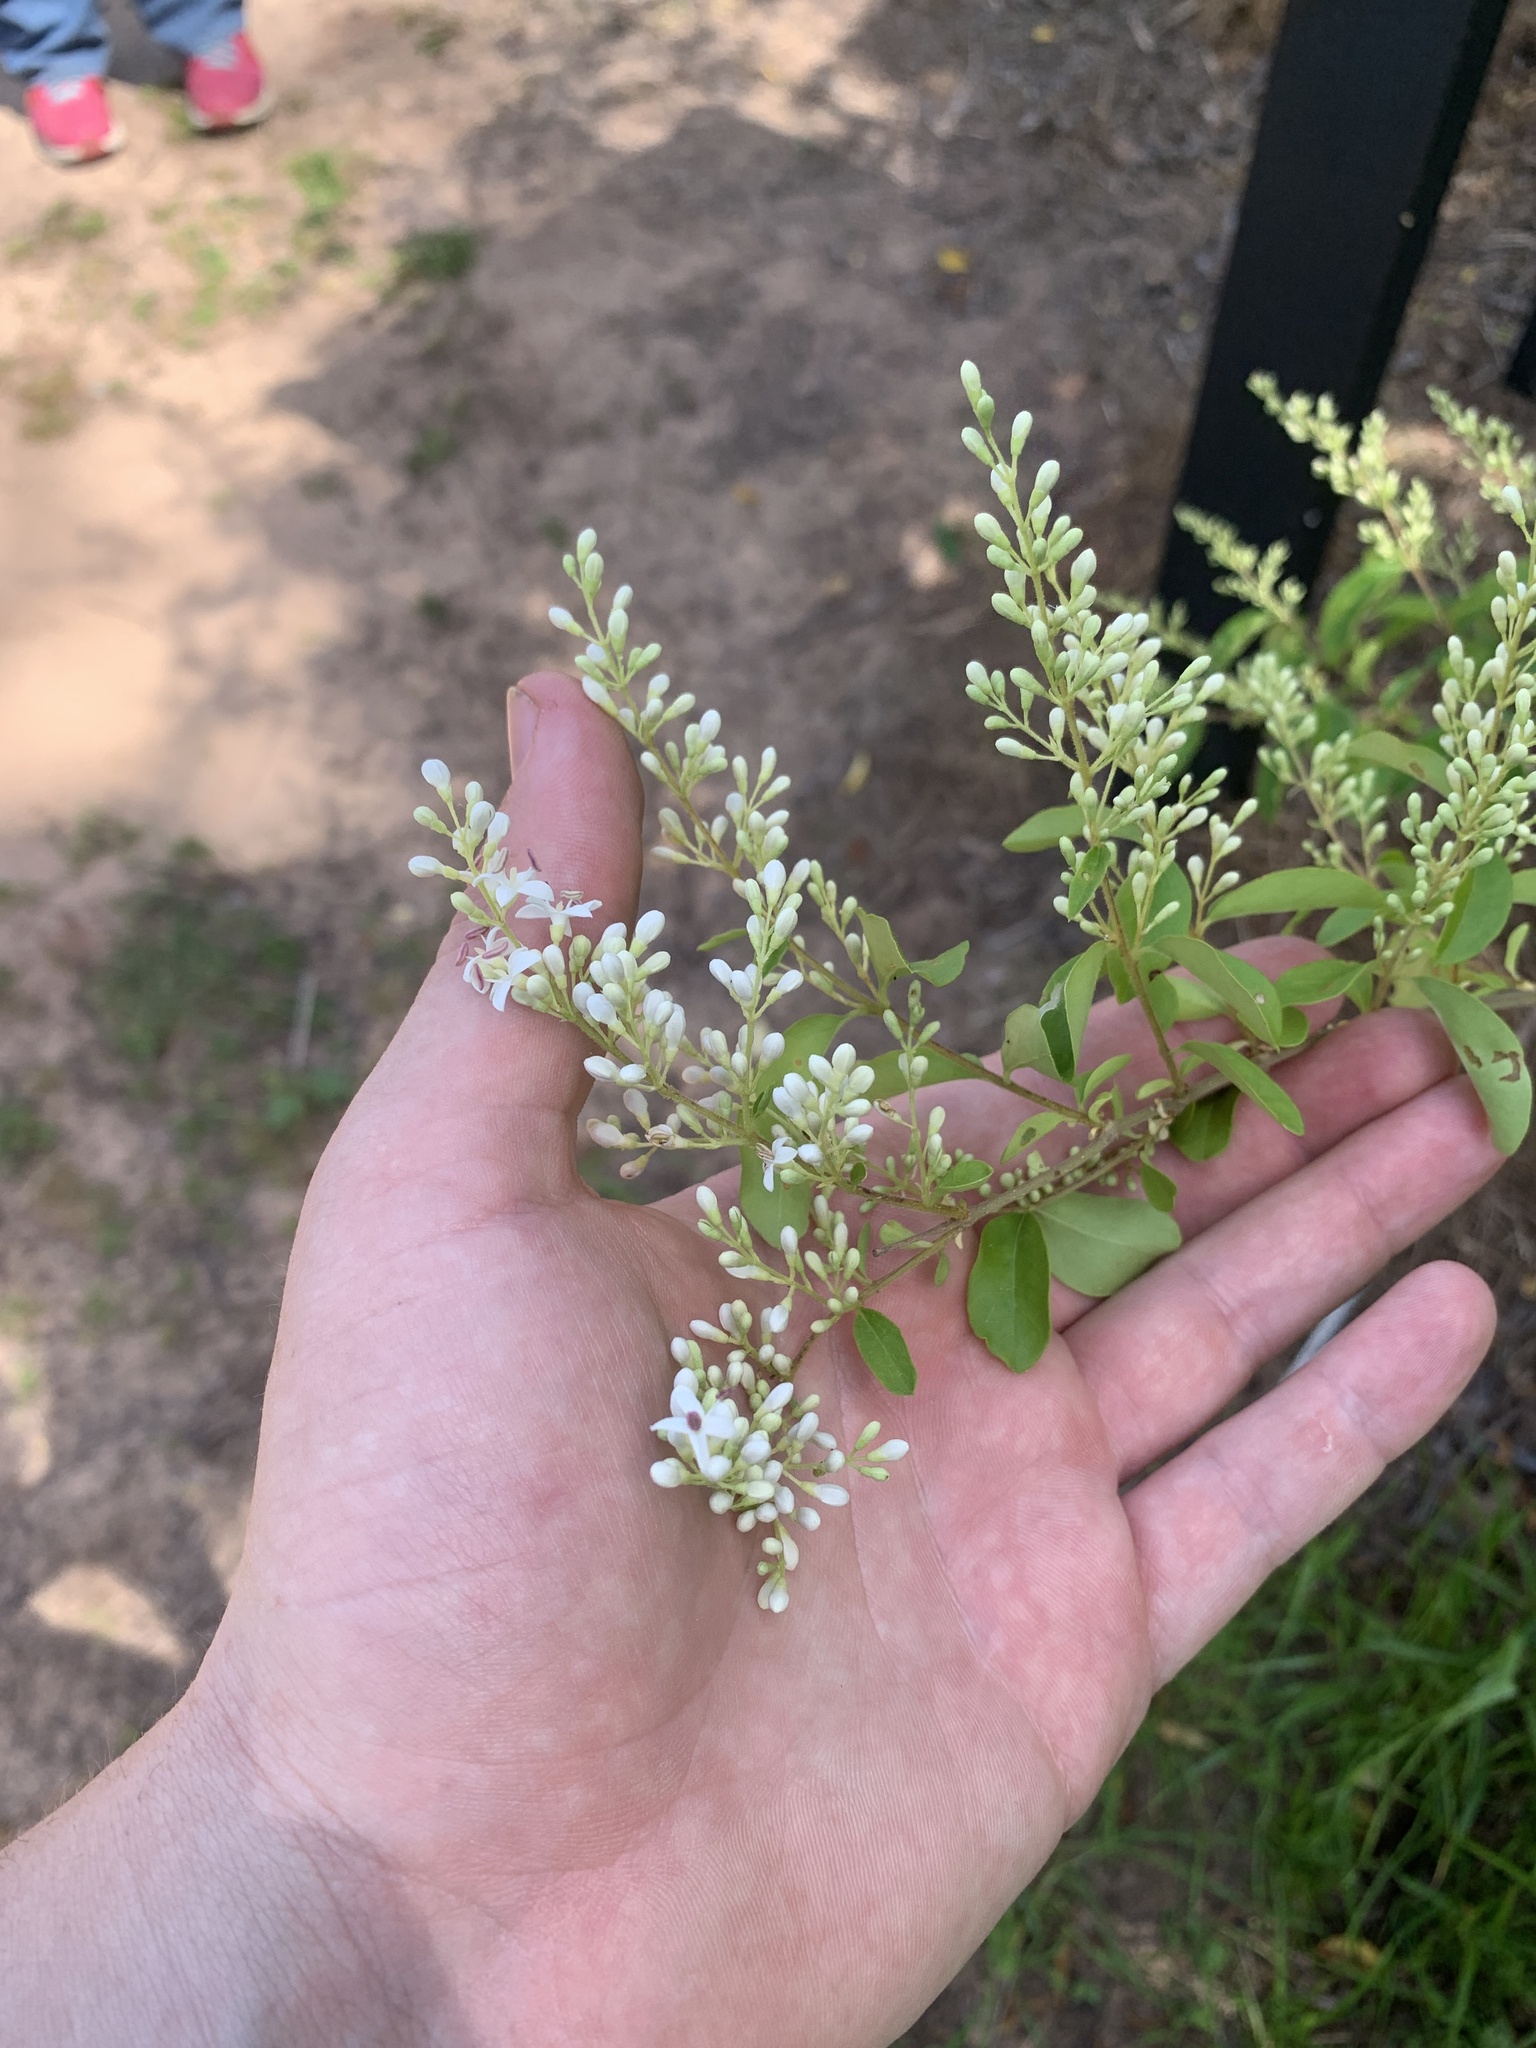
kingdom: Plantae
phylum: Tracheophyta
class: Magnoliopsida
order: Lamiales
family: Oleaceae
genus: Ligustrum
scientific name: Ligustrum sinense
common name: Chinese privet
